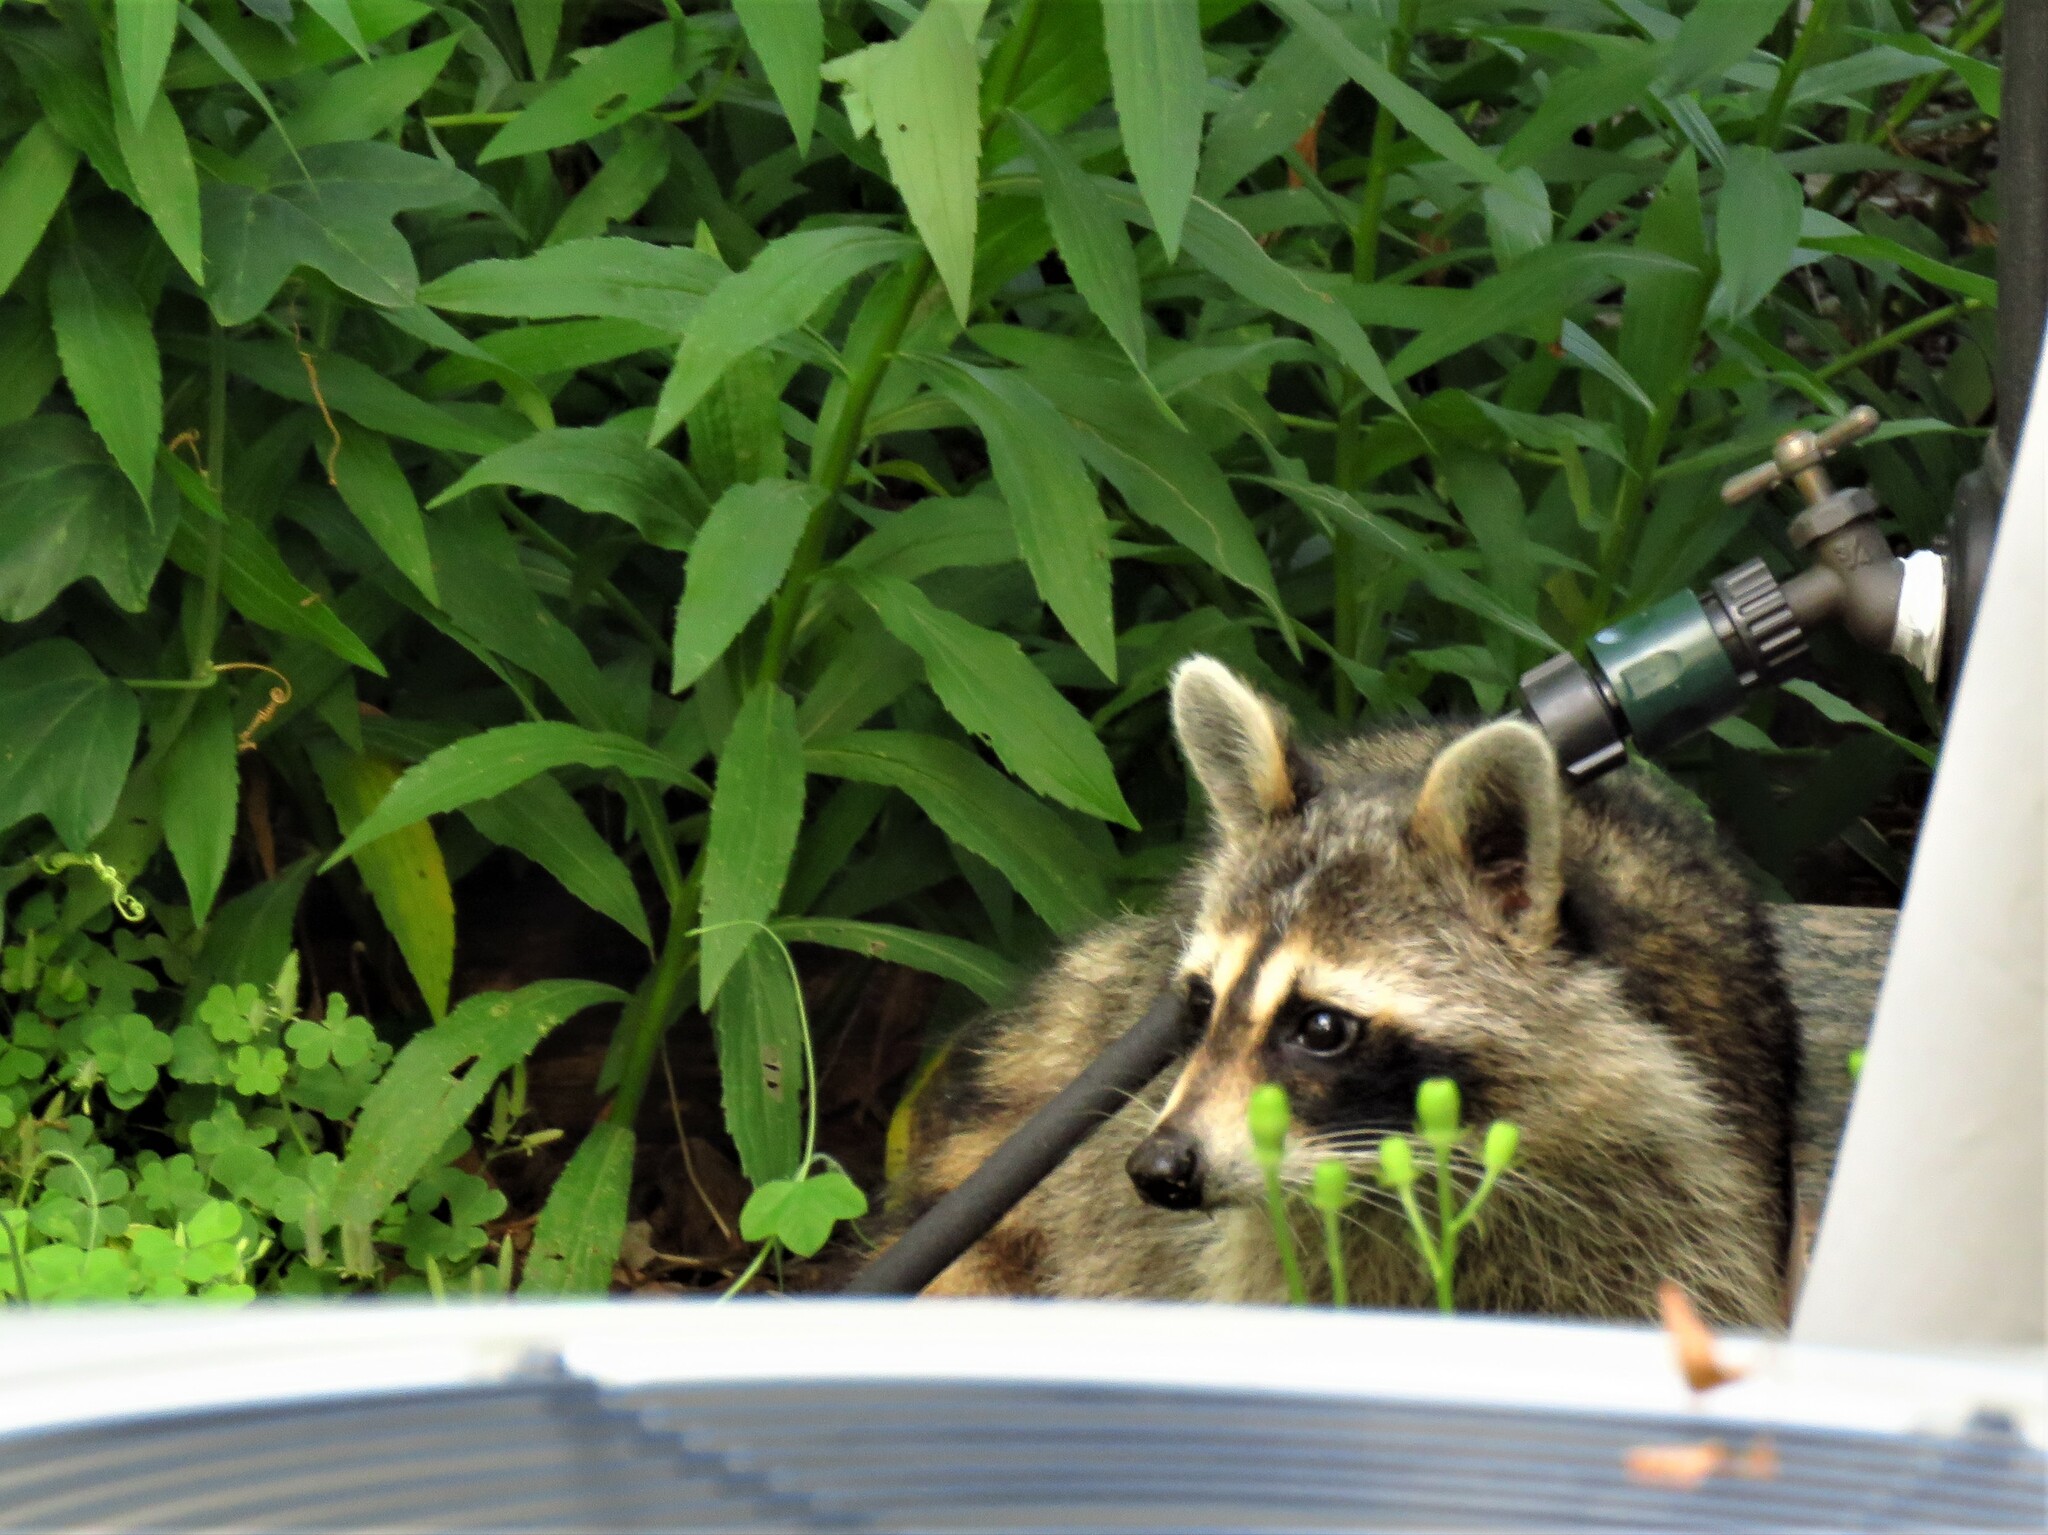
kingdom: Animalia
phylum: Chordata
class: Mammalia
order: Carnivora
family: Procyonidae
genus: Procyon
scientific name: Procyon lotor
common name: Raccoon
